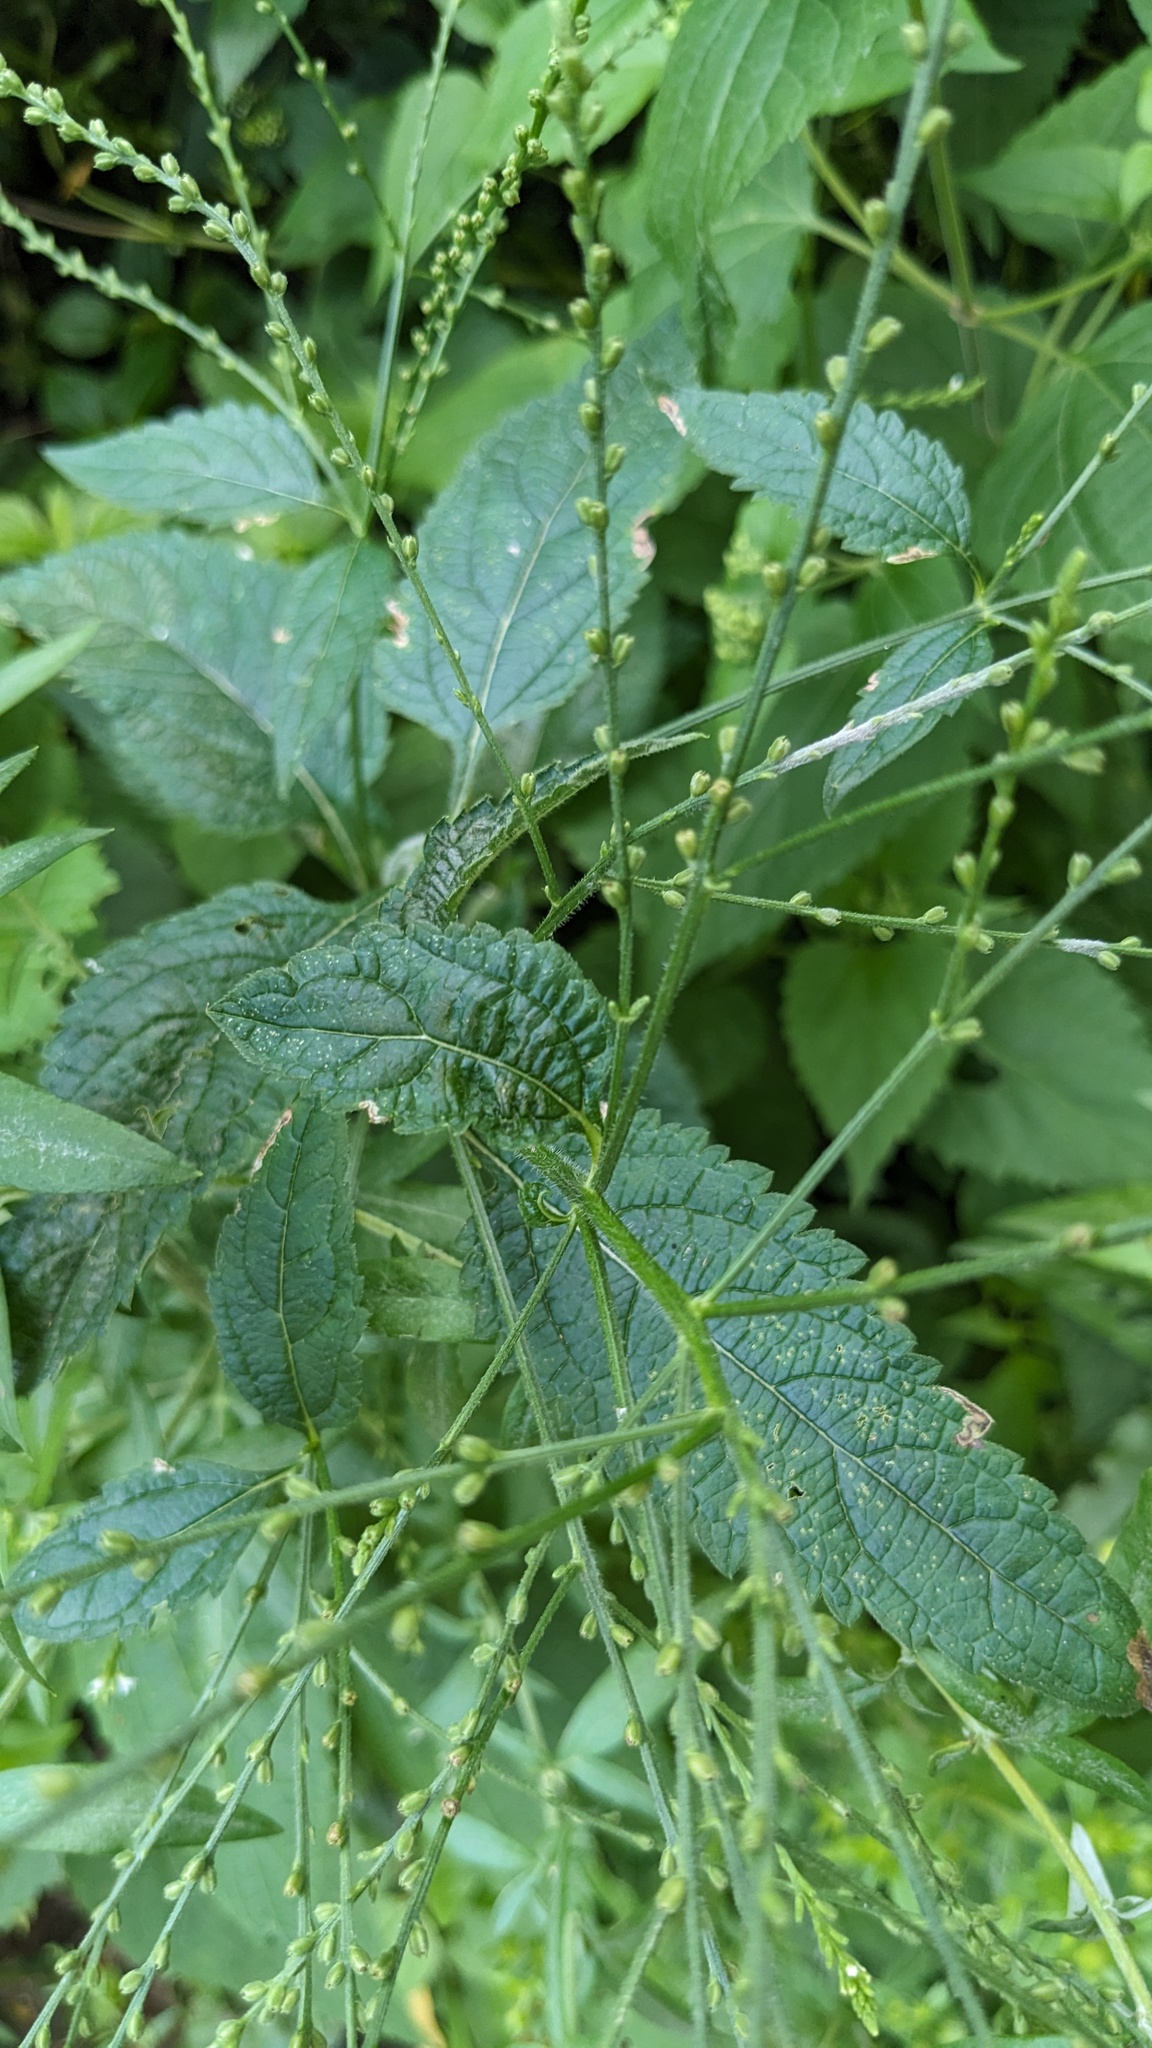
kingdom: Plantae
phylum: Tracheophyta
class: Magnoliopsida
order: Lamiales
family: Verbenaceae
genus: Verbena
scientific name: Verbena urticifolia
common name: Nettle-leaved vervain
